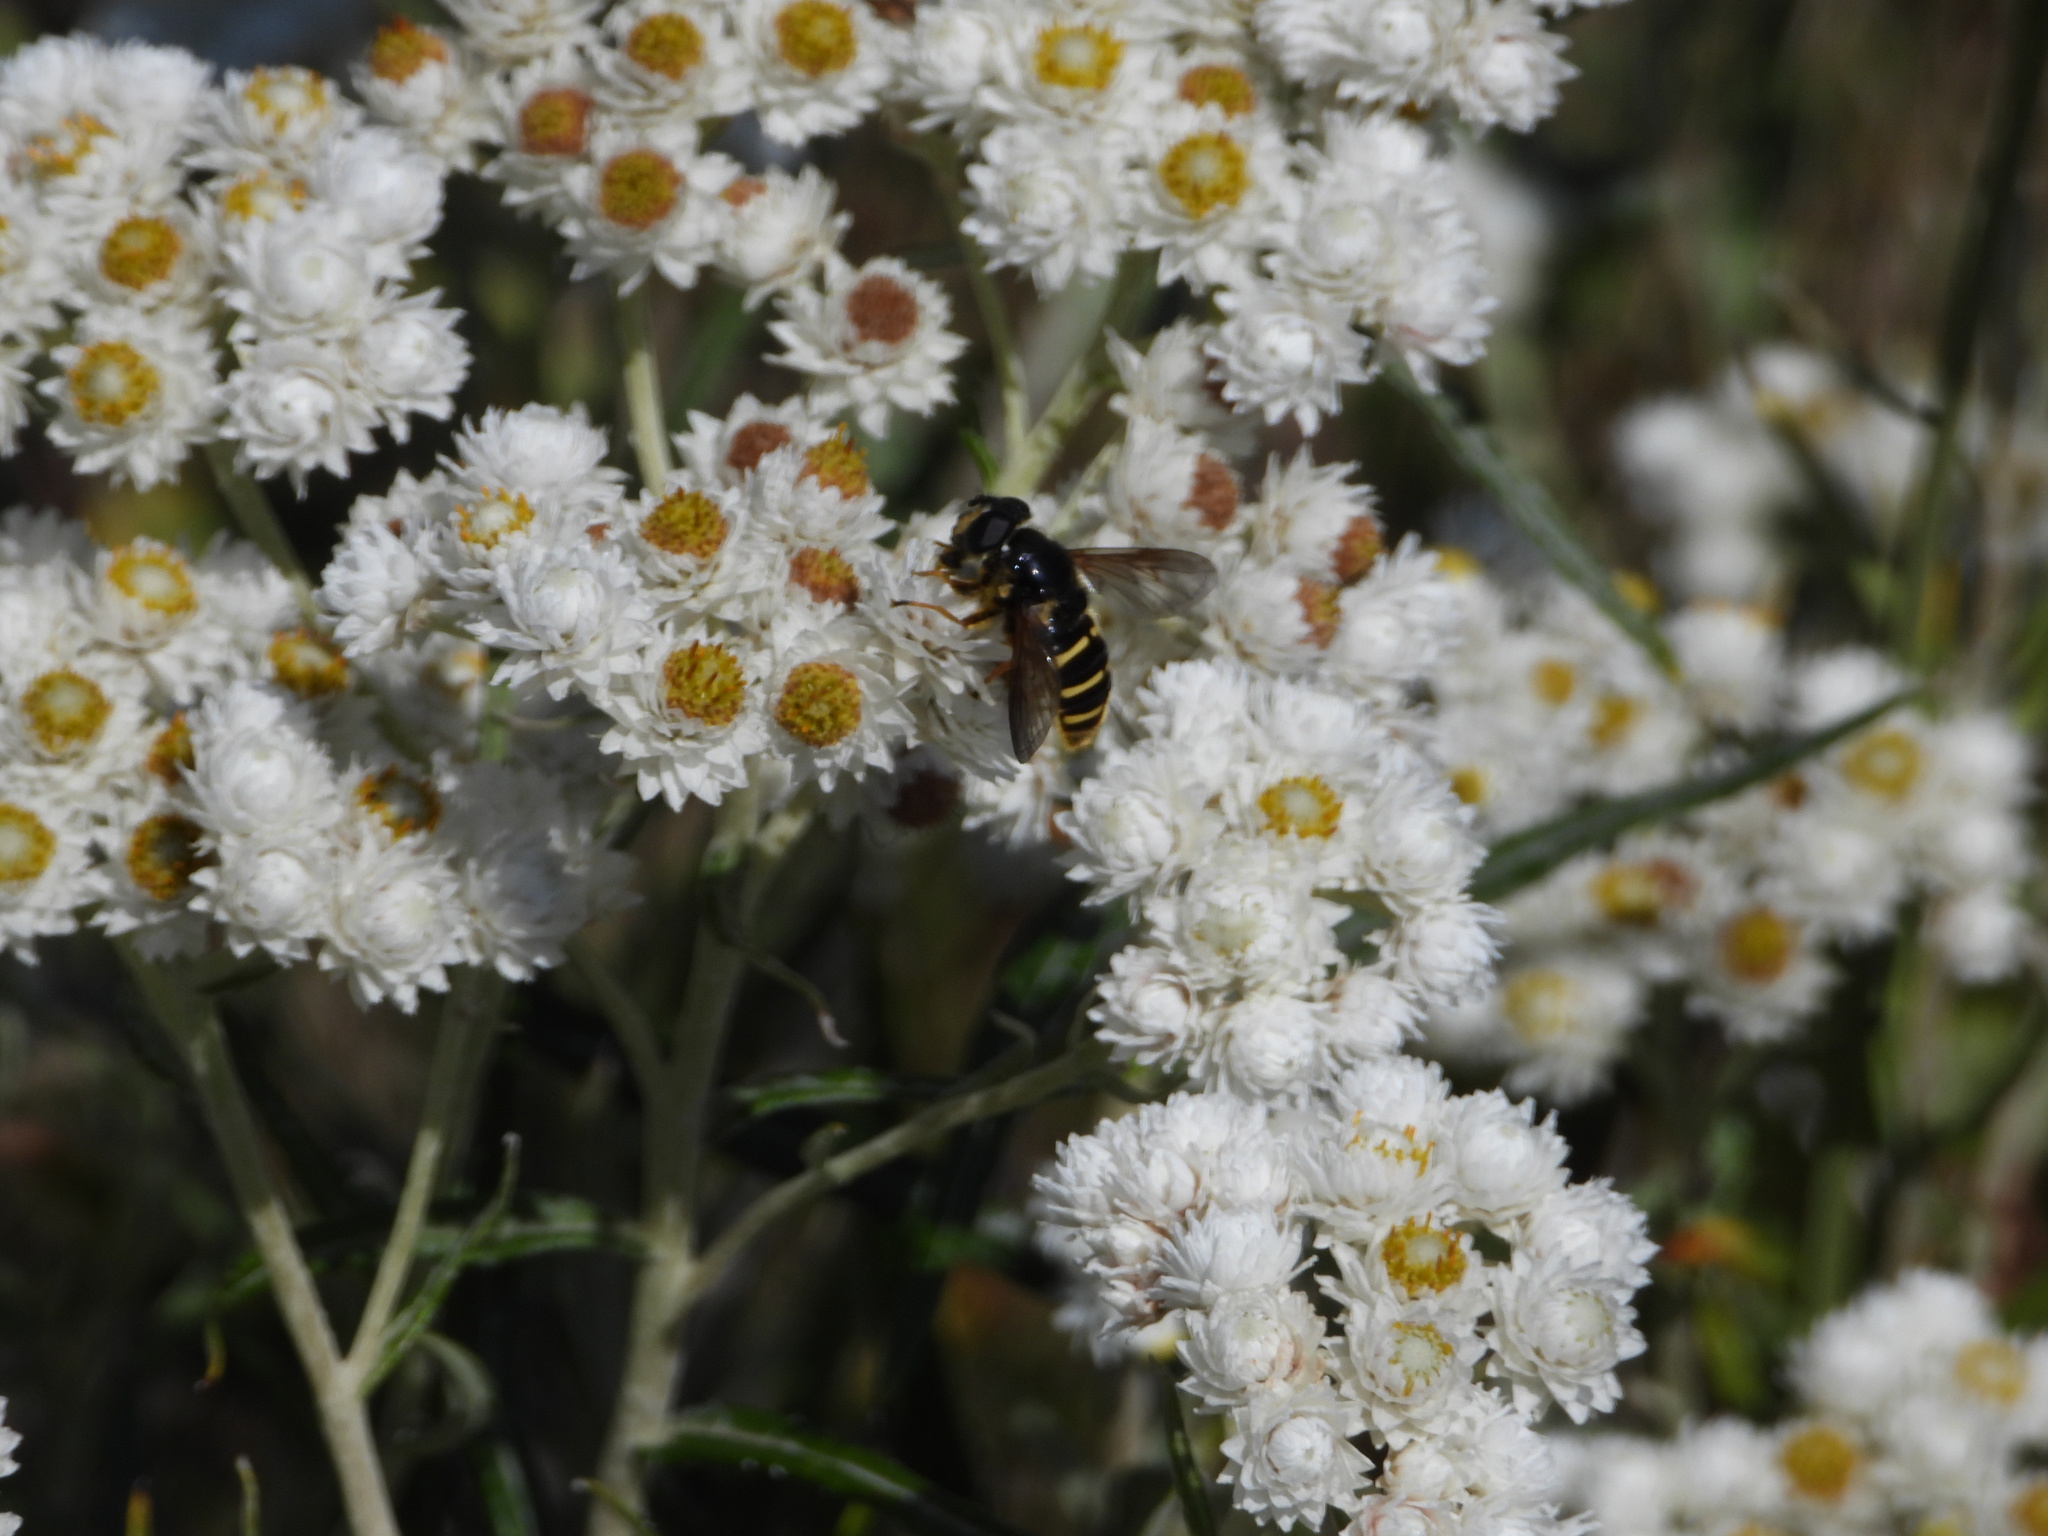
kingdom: Animalia
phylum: Arthropoda
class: Insecta
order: Diptera
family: Syrphidae
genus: Sericomyia
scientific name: Sericomyia chalcopyga
